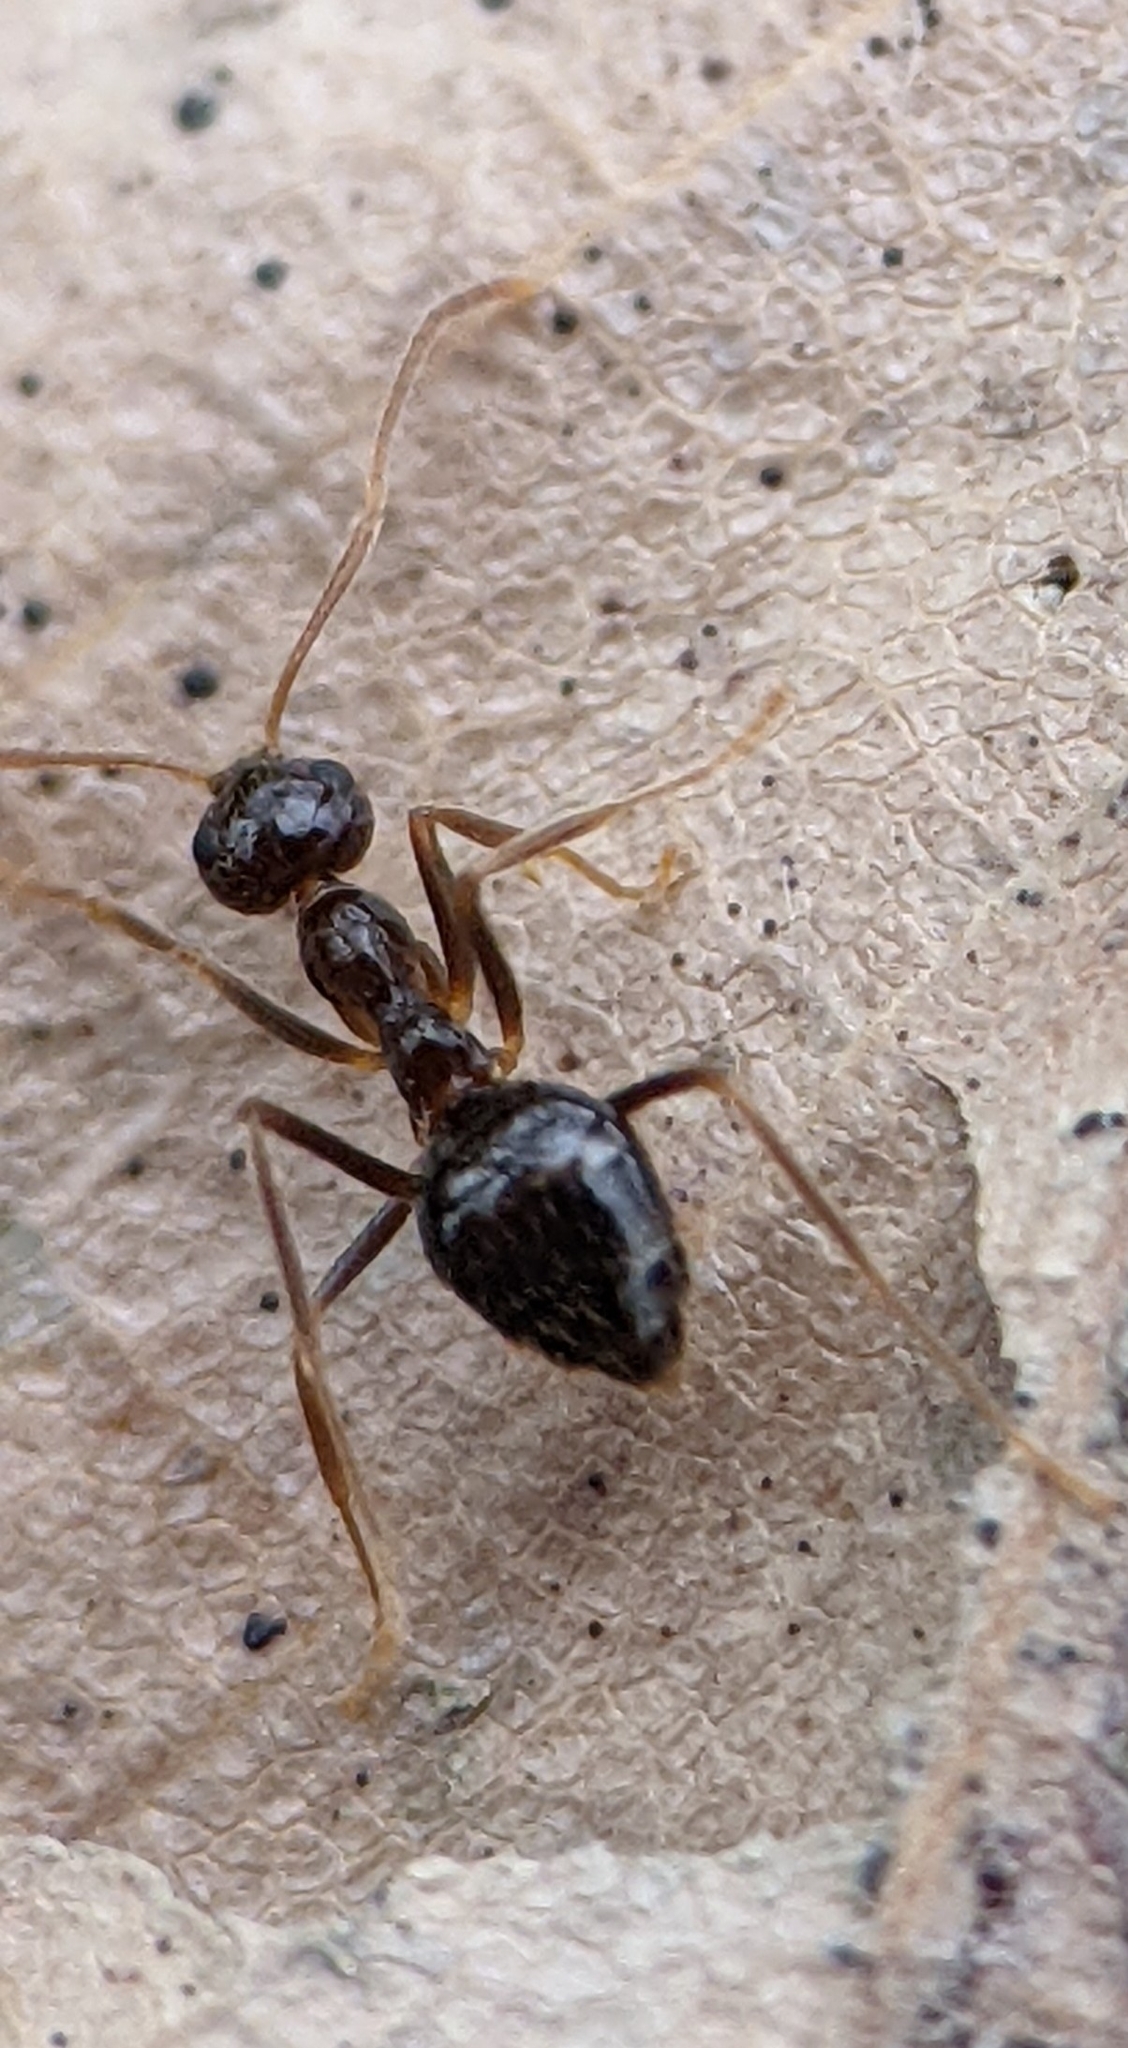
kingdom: Animalia
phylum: Arthropoda
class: Insecta
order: Hymenoptera
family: Formicidae
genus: Prenolepis
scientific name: Prenolepis imparis
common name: Small honey ant
